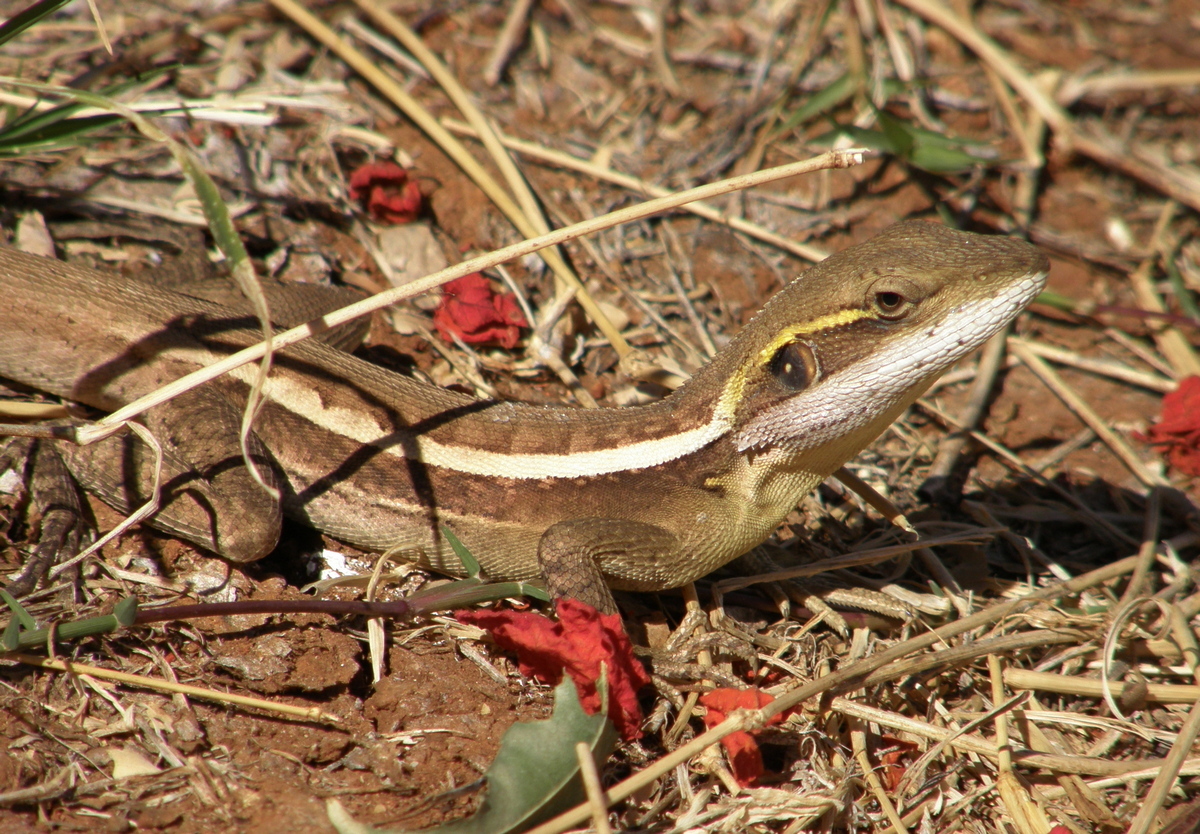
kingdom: Animalia
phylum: Chordata
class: Squamata
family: Agamidae
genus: Lophognathus
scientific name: Lophognathus horneri
